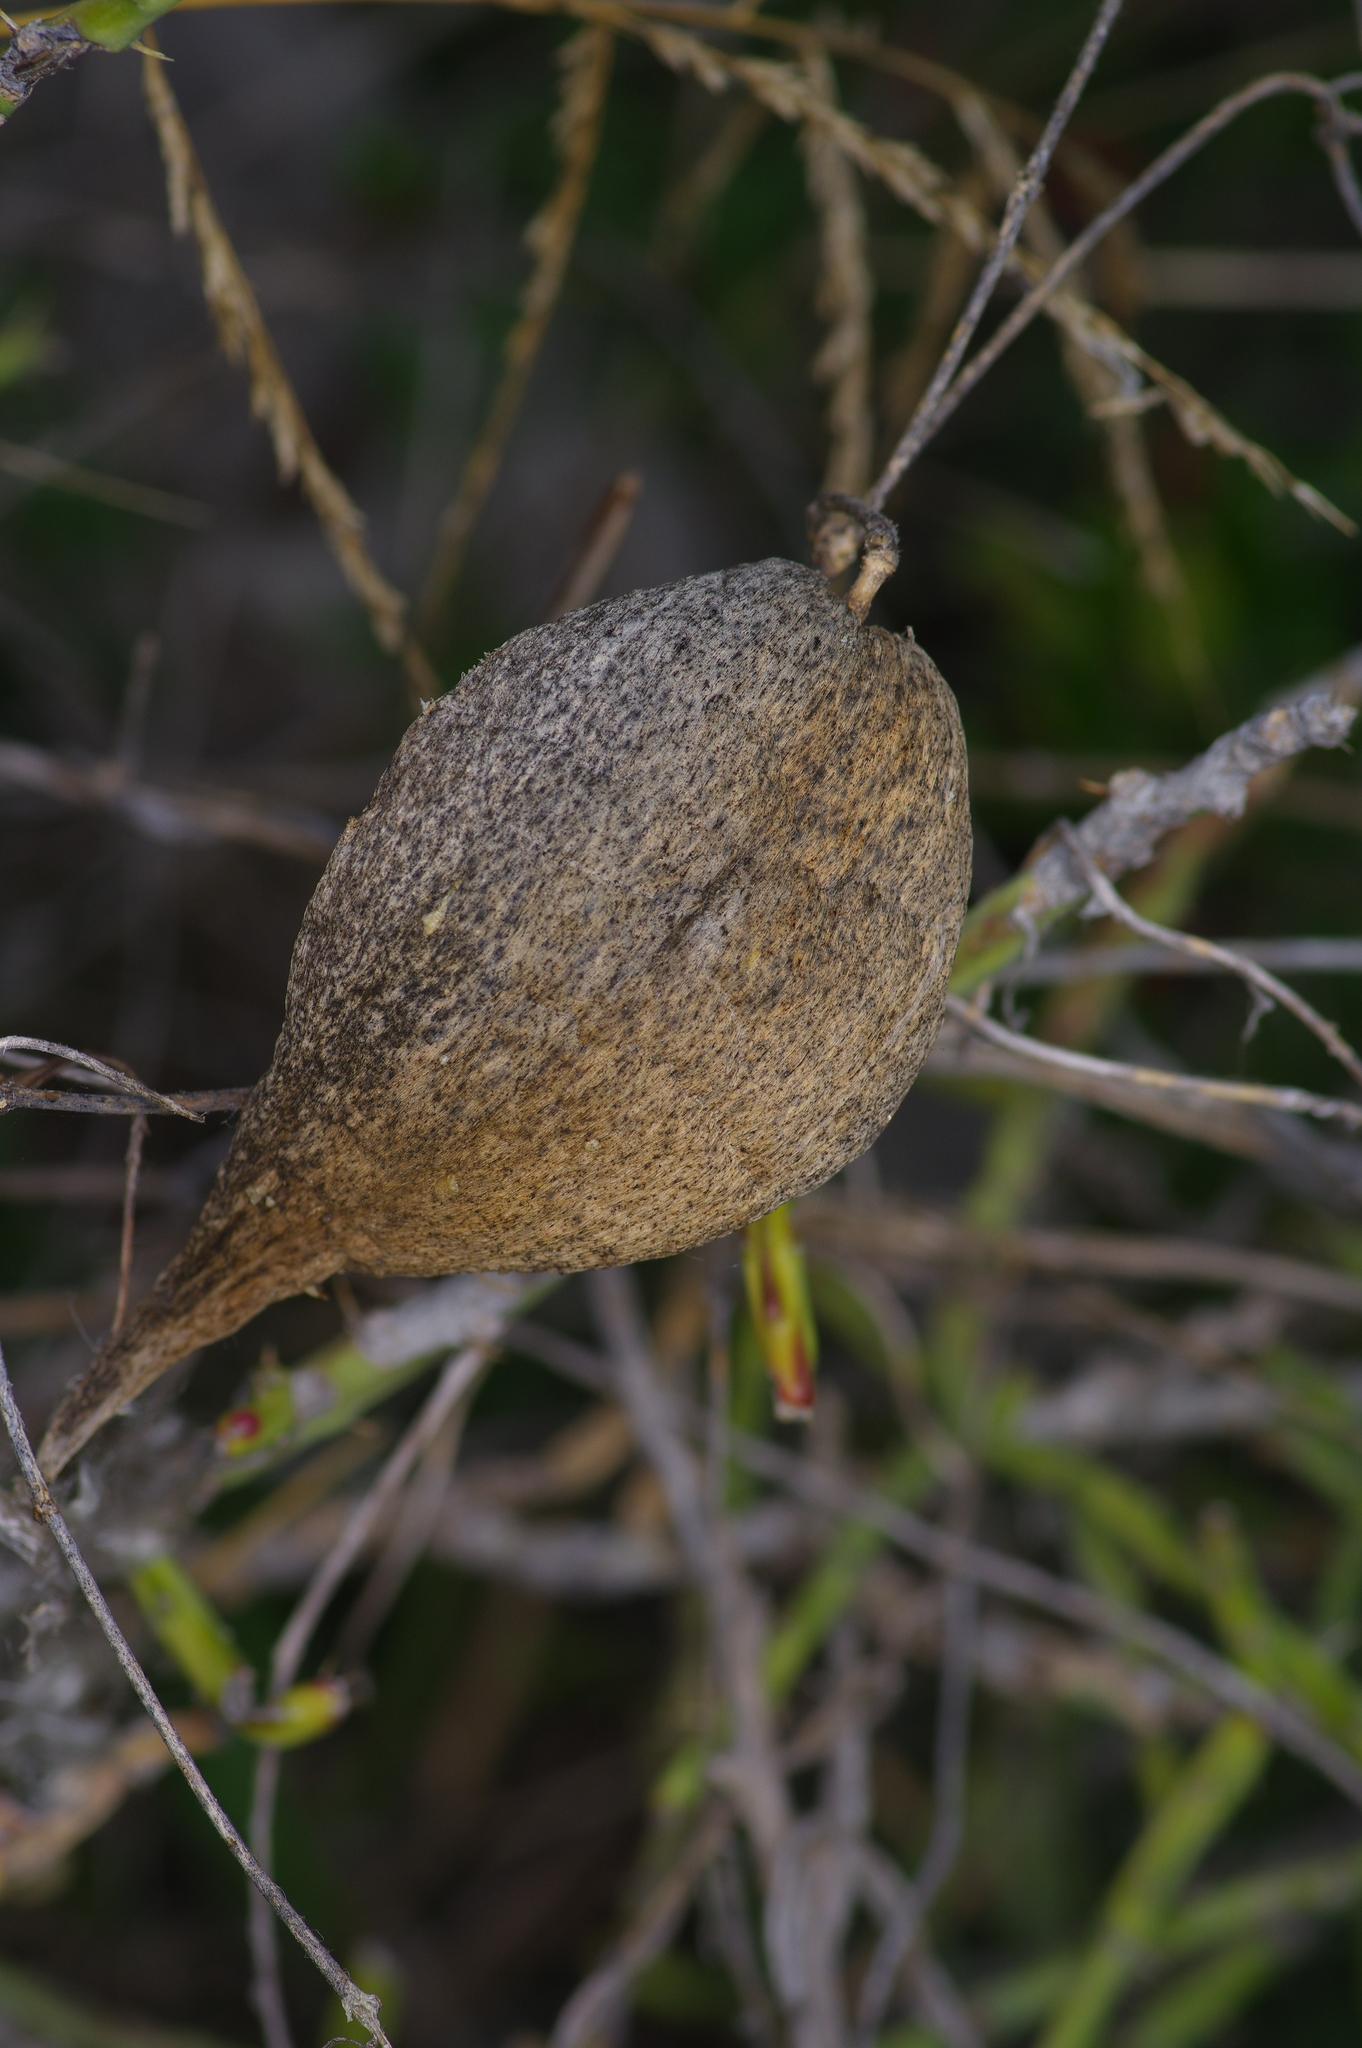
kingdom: Plantae
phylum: Tracheophyta
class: Magnoliopsida
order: Gentianales
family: Apocynaceae
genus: Cynanchum
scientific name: Cynanchum racemosum
